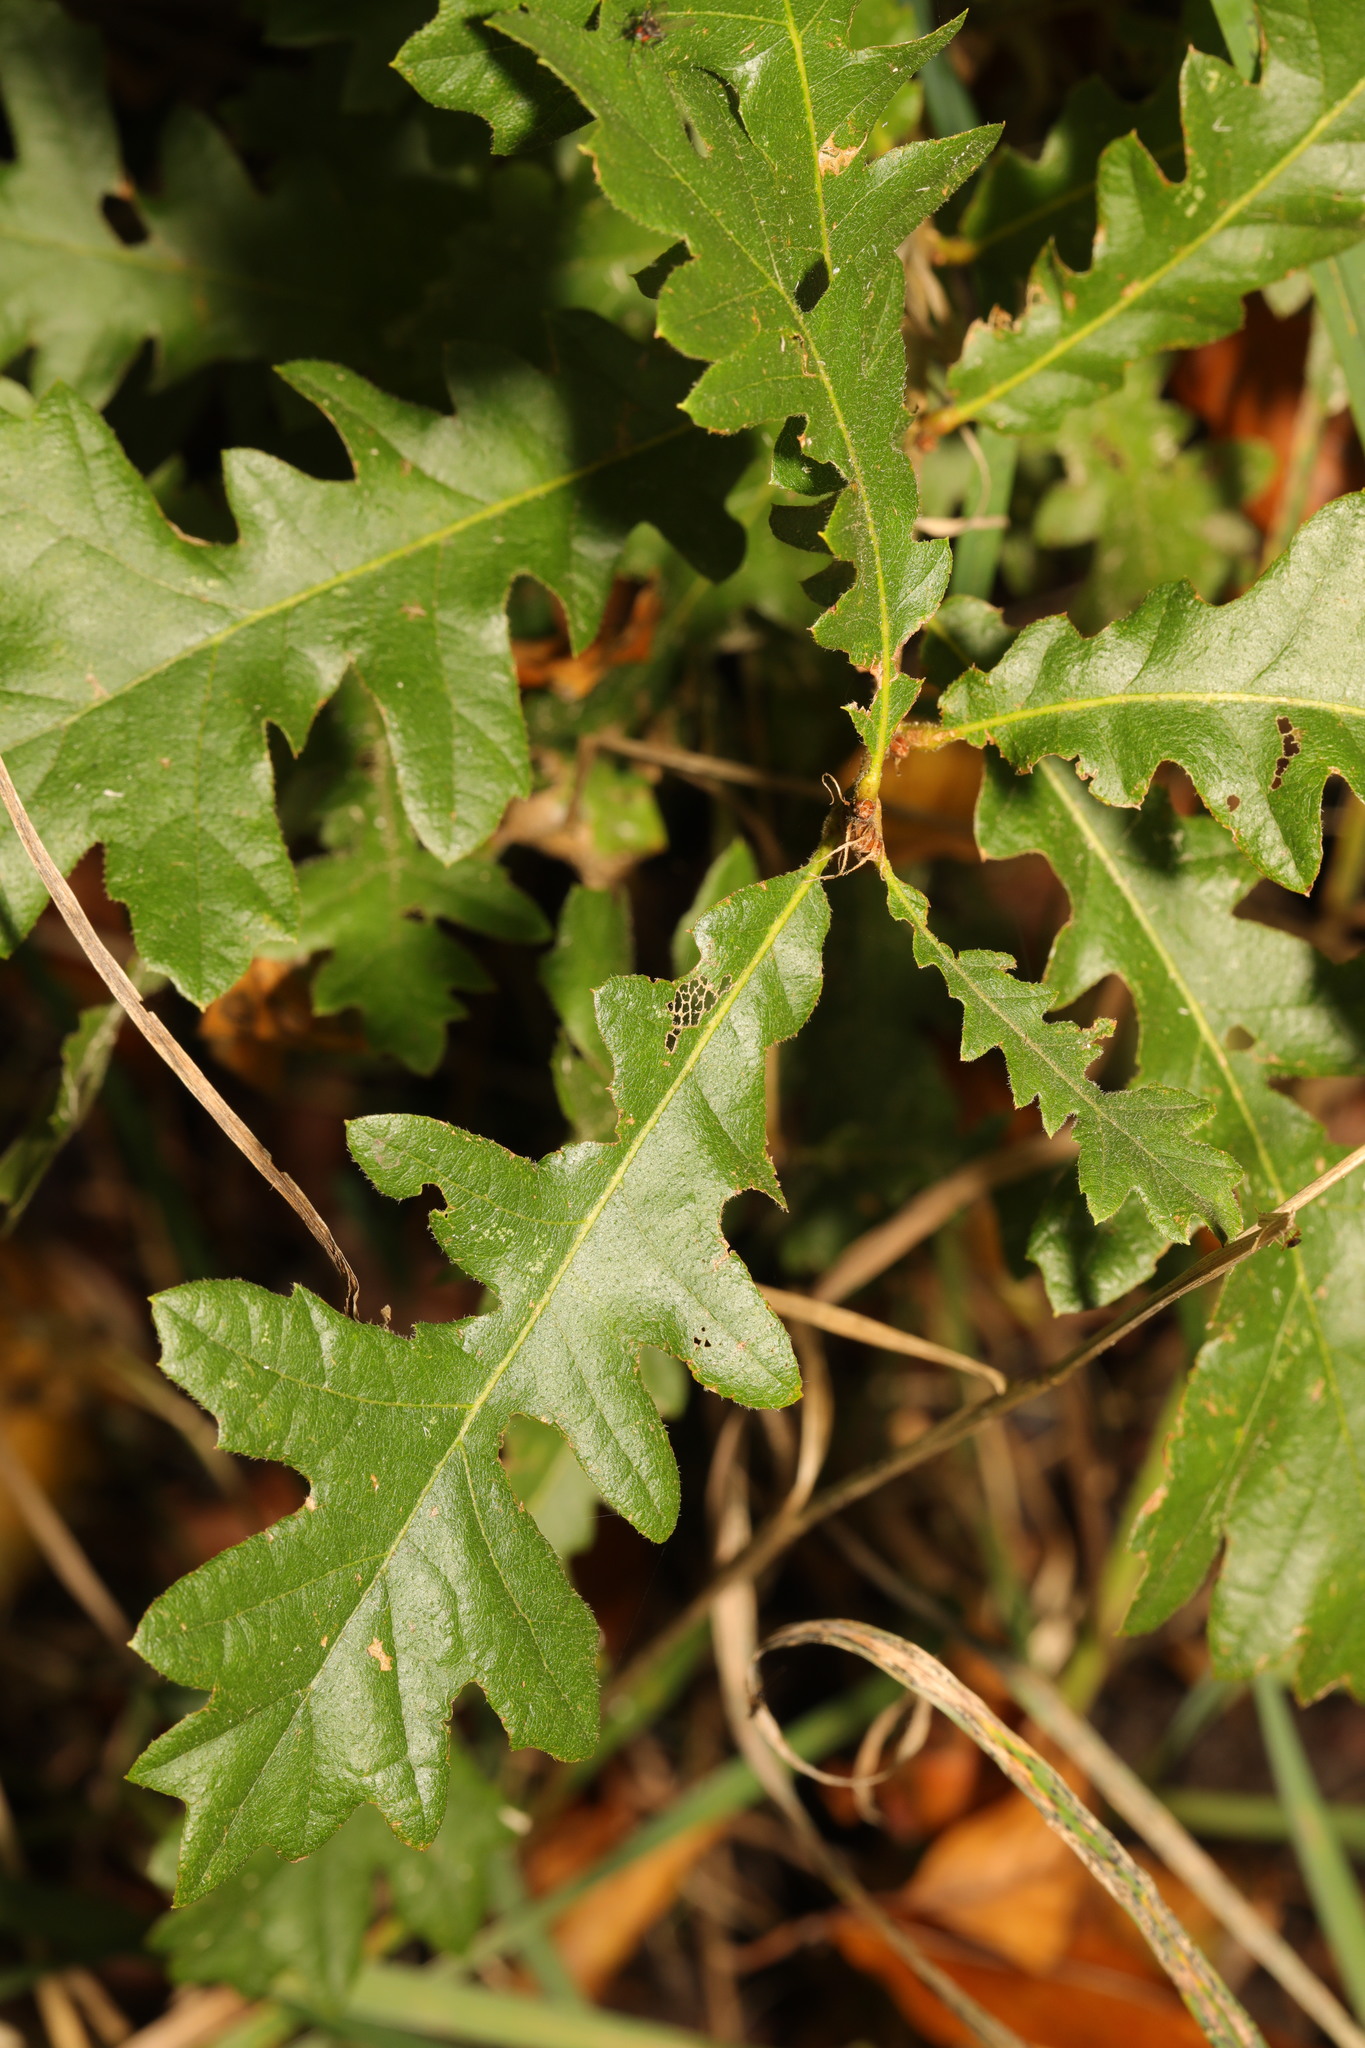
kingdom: Plantae
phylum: Tracheophyta
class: Magnoliopsida
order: Fagales
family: Fagaceae
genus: Quercus
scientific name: Quercus cerris
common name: Turkey oak
